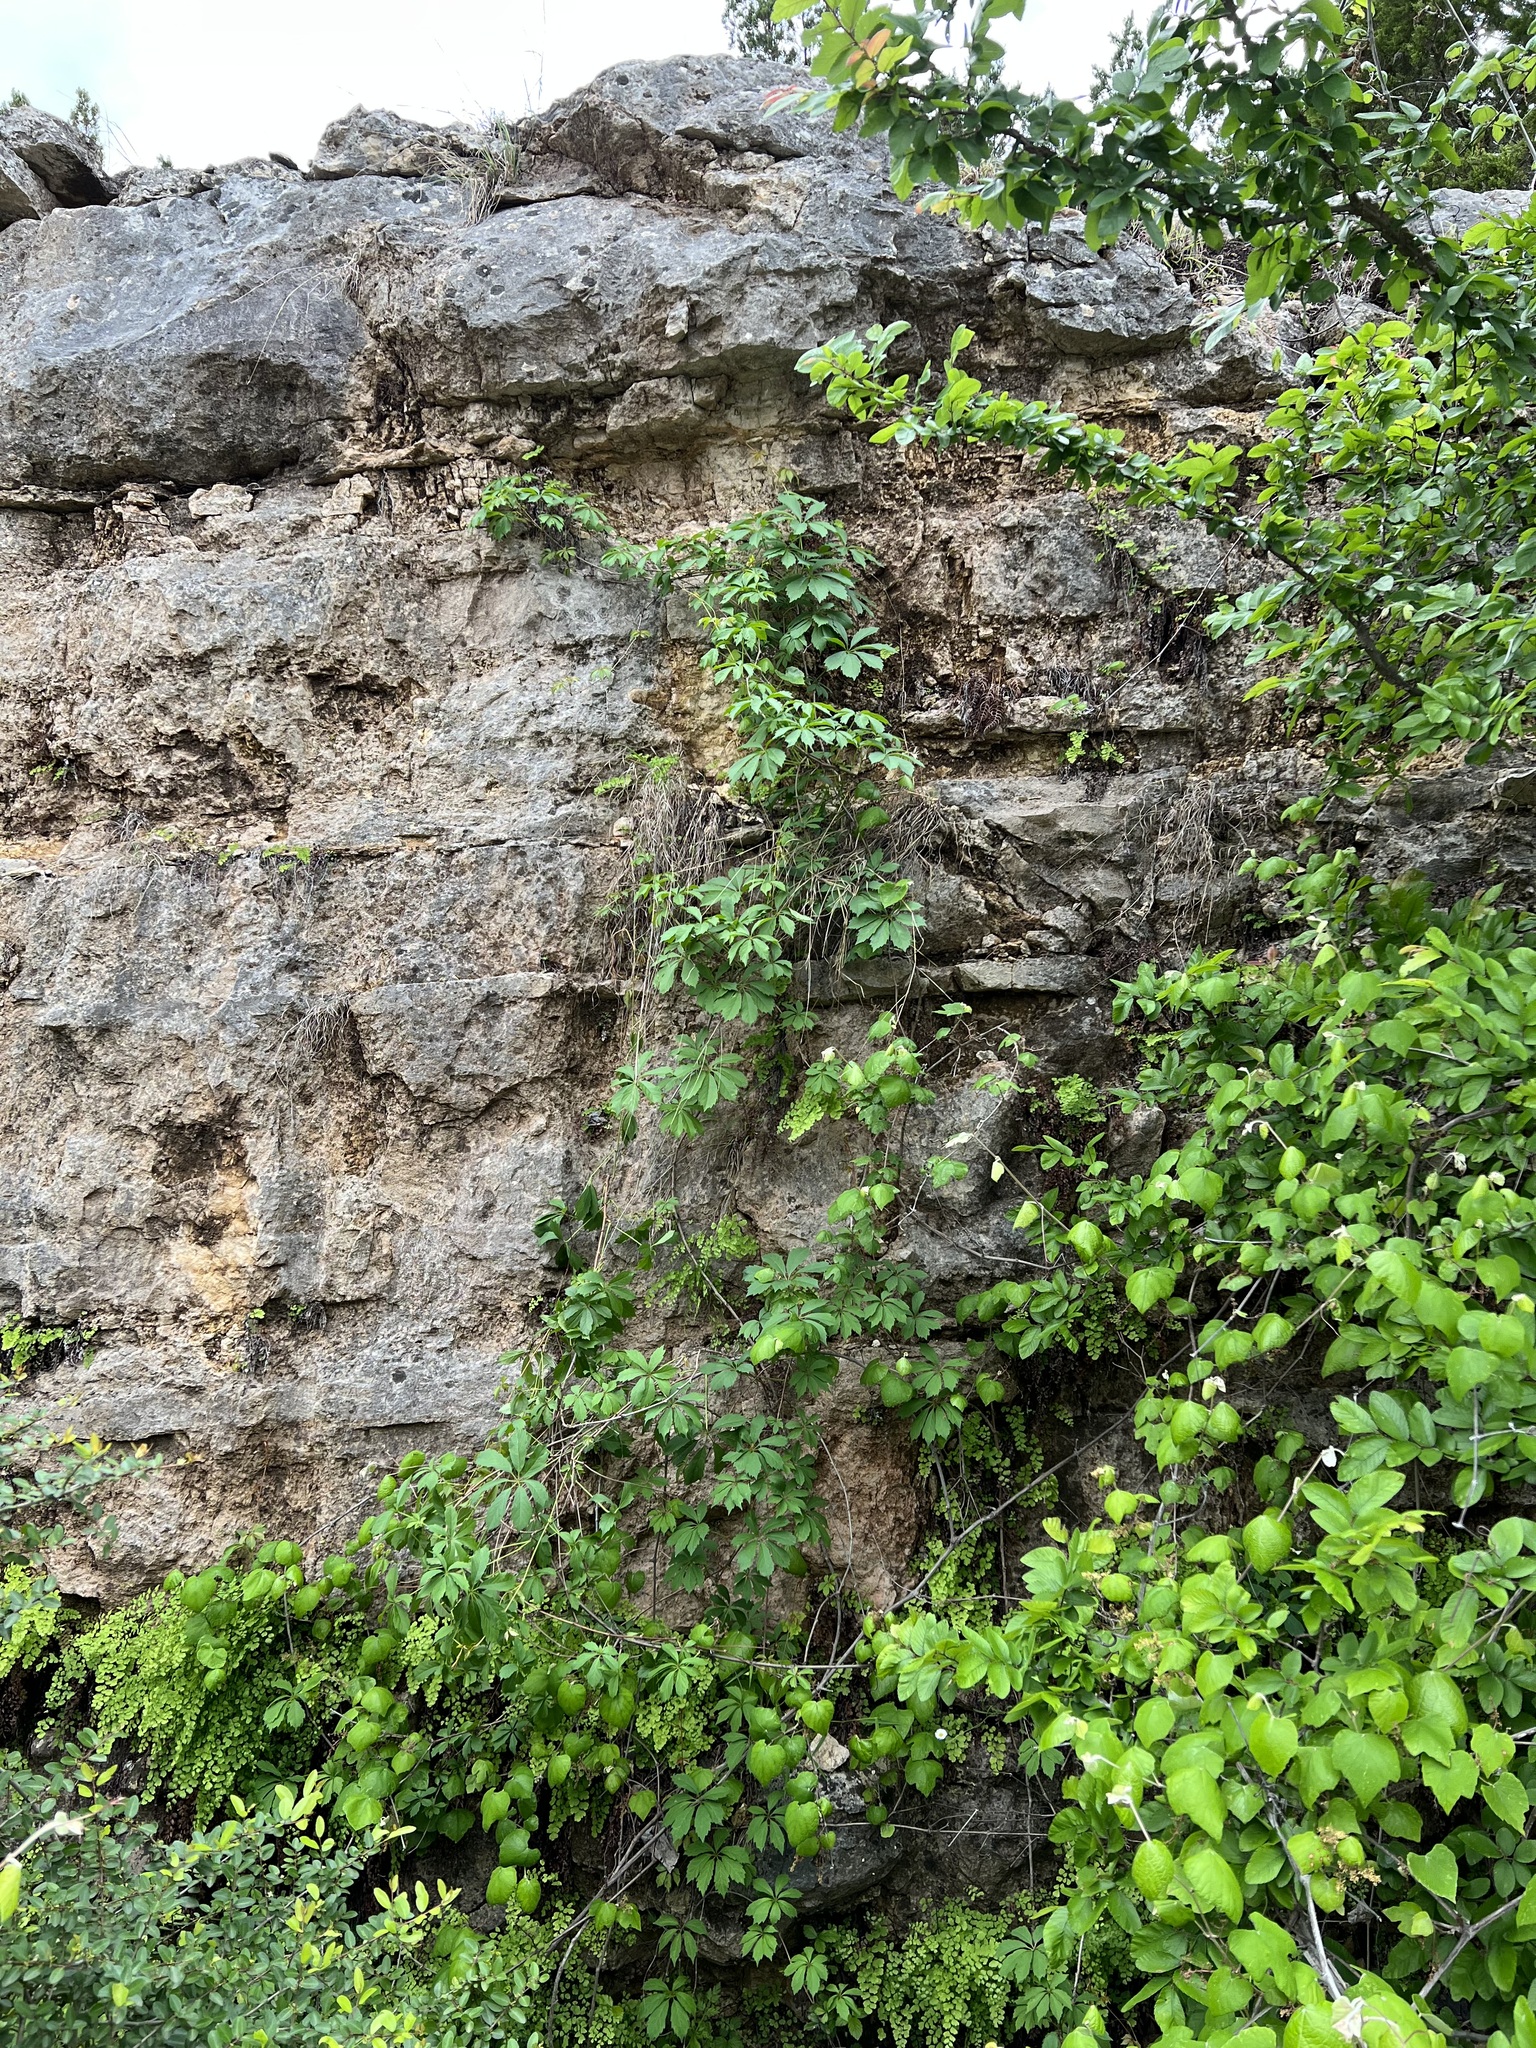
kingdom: Plantae
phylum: Tracheophyta
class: Magnoliopsida
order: Vitales
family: Vitaceae
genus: Parthenocissus
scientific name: Parthenocissus heptaphylla
